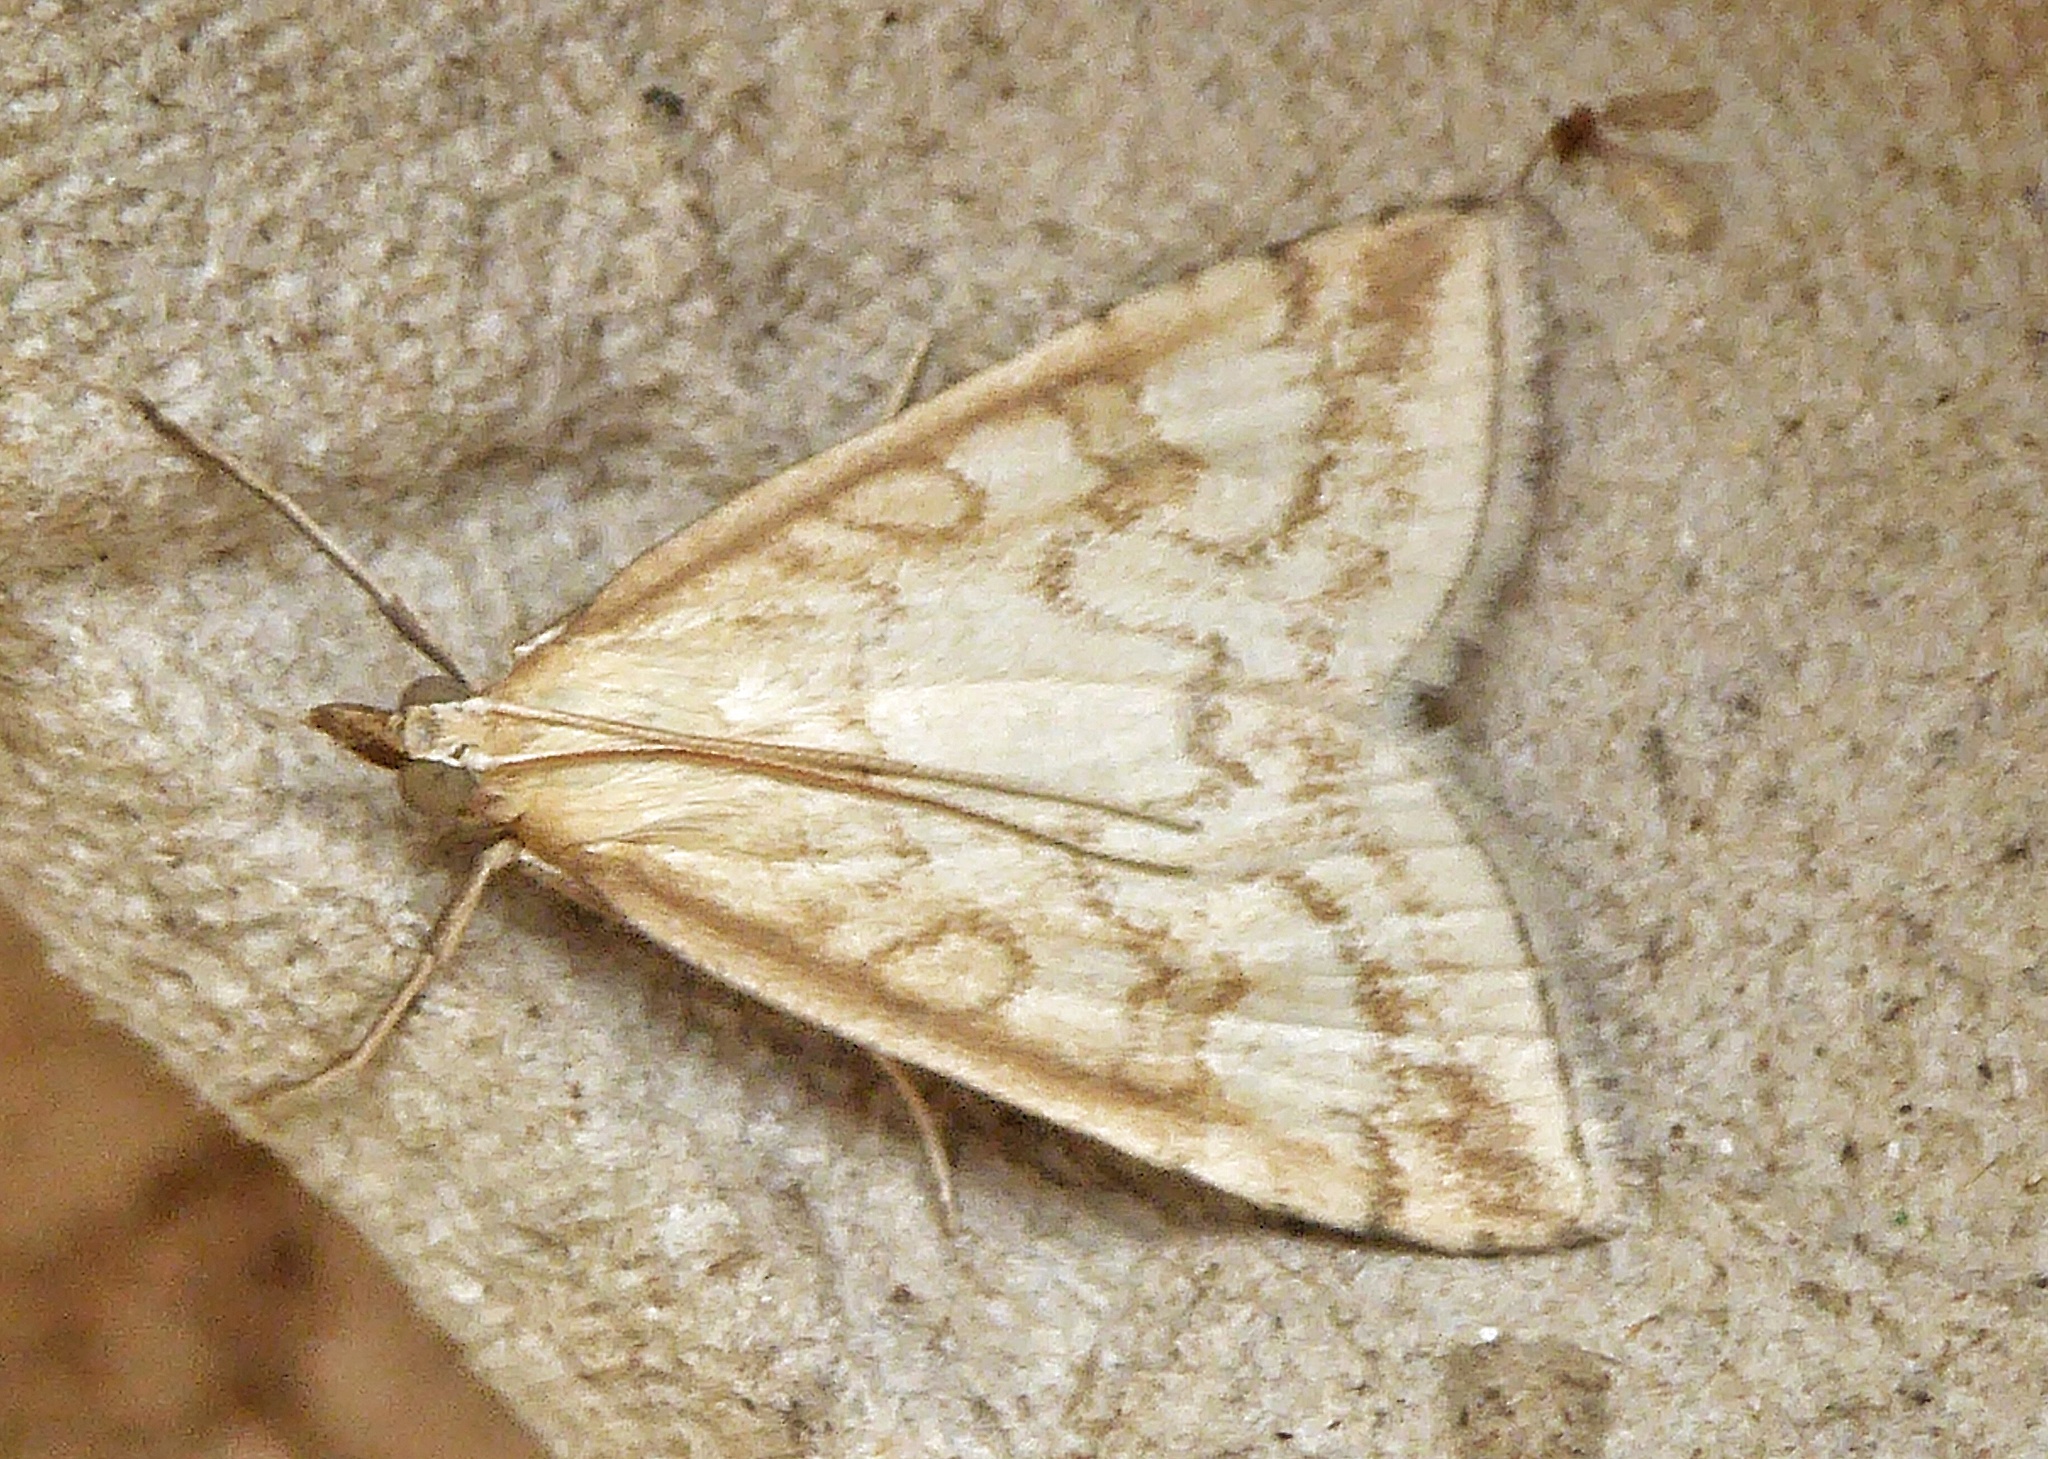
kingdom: Animalia
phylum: Arthropoda
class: Insecta
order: Lepidoptera
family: Crambidae
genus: Udea
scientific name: Udea lutealis
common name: Pale straw pearl
